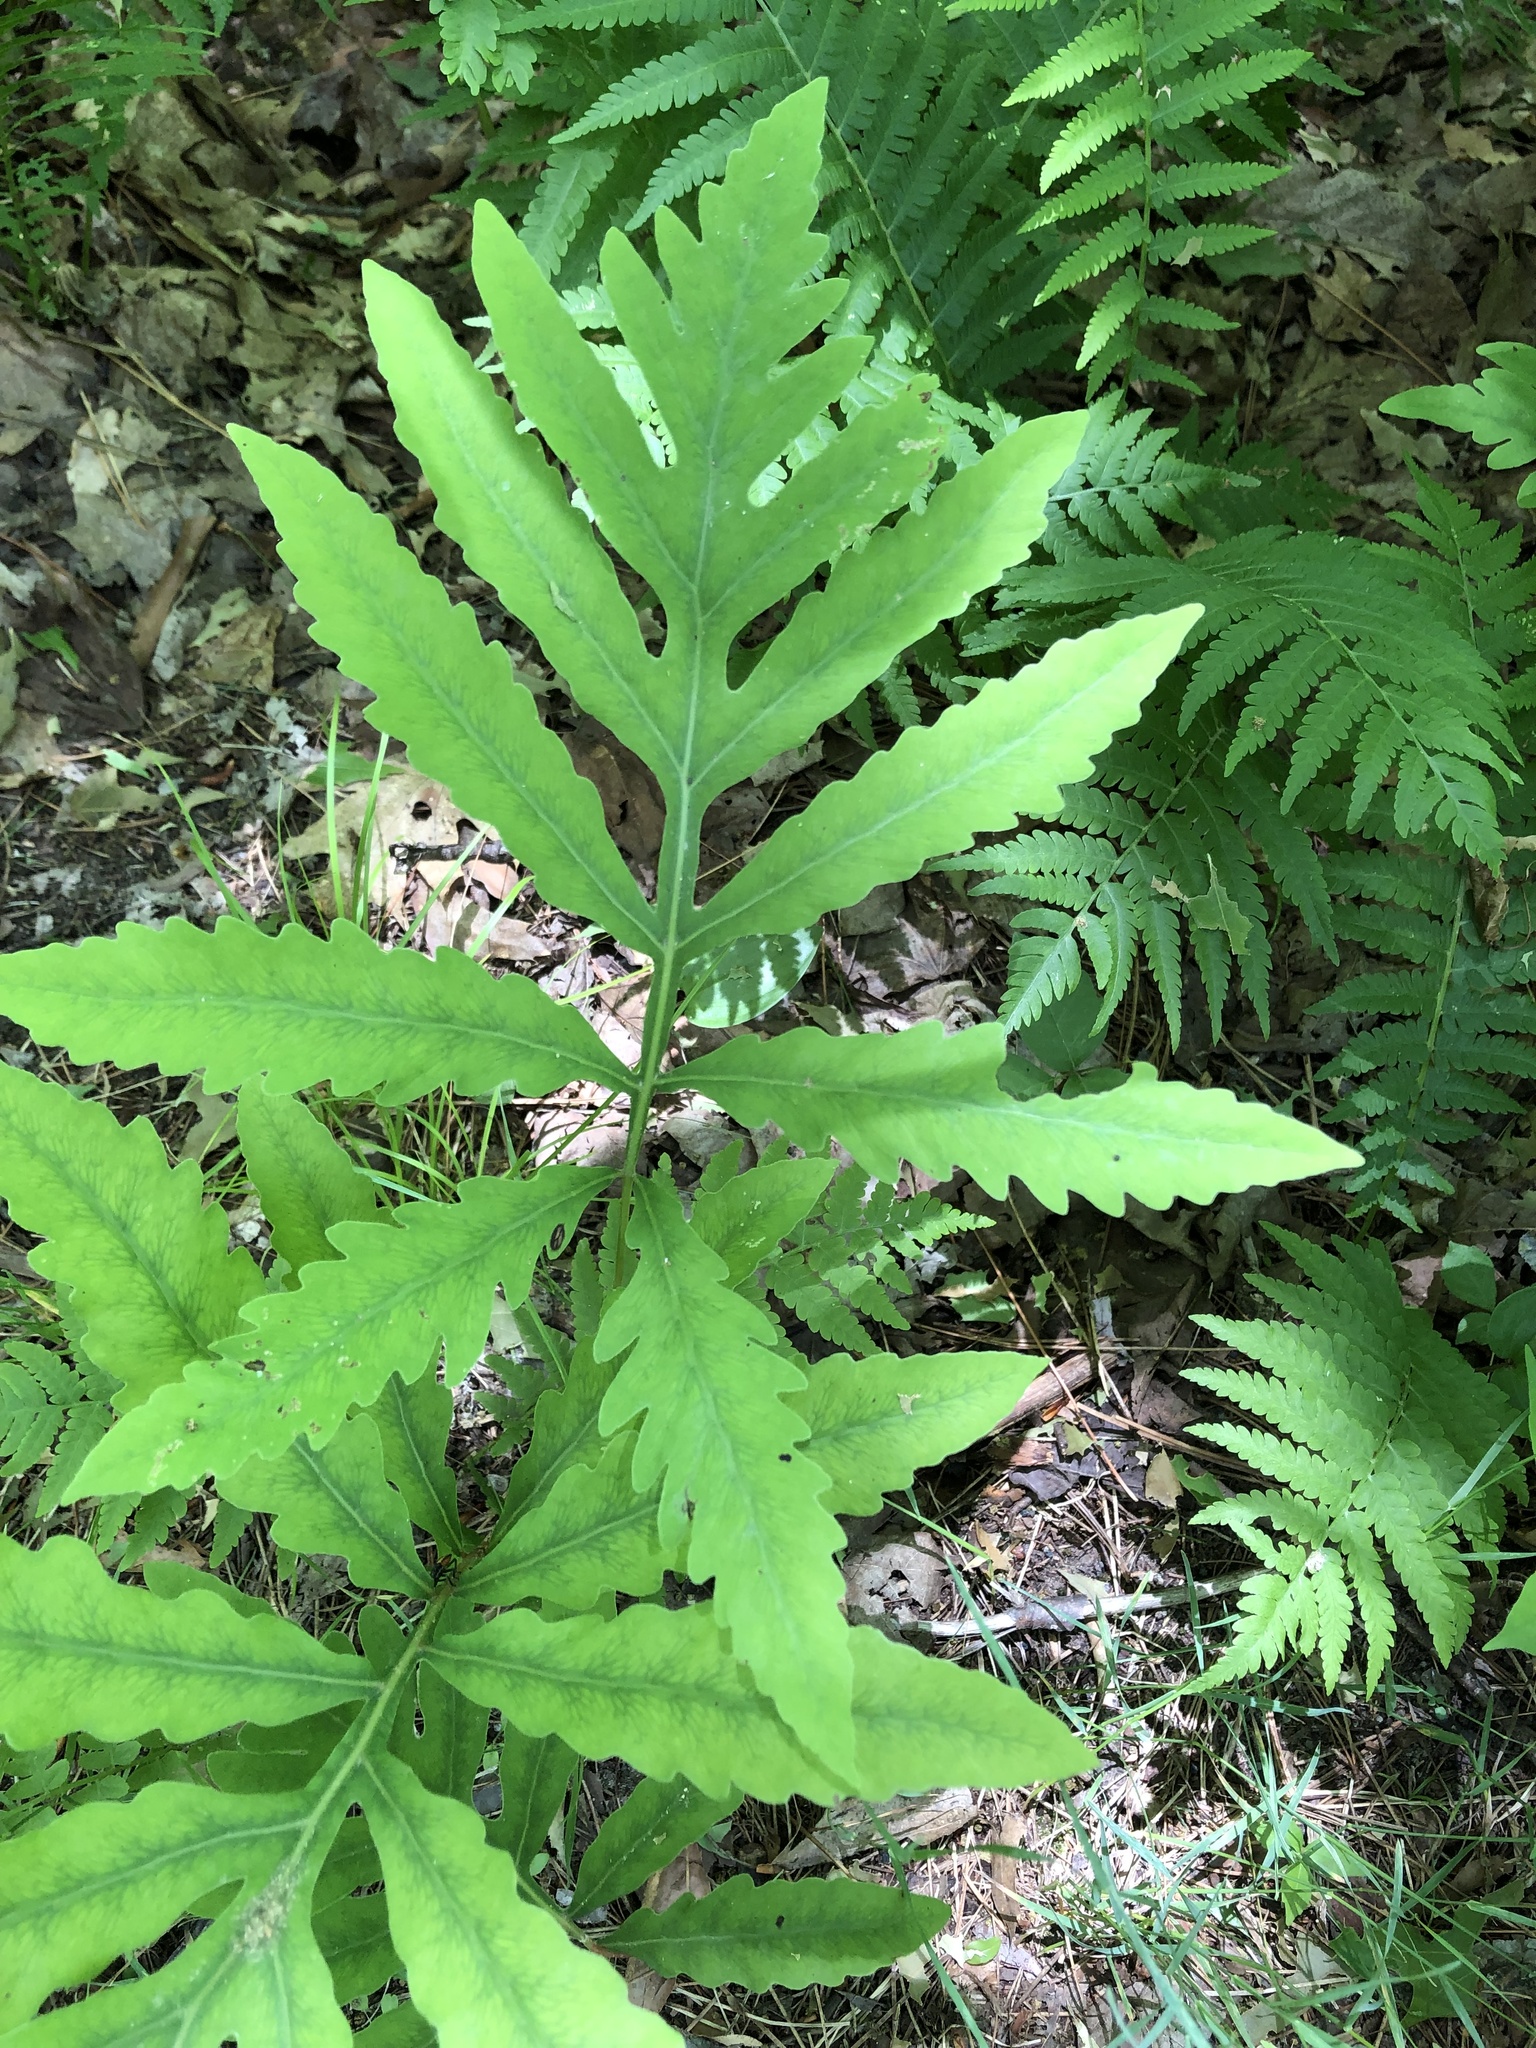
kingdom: Plantae
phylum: Tracheophyta
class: Polypodiopsida
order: Polypodiales
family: Onocleaceae
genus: Onoclea
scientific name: Onoclea sensibilis
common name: Sensitive fern
